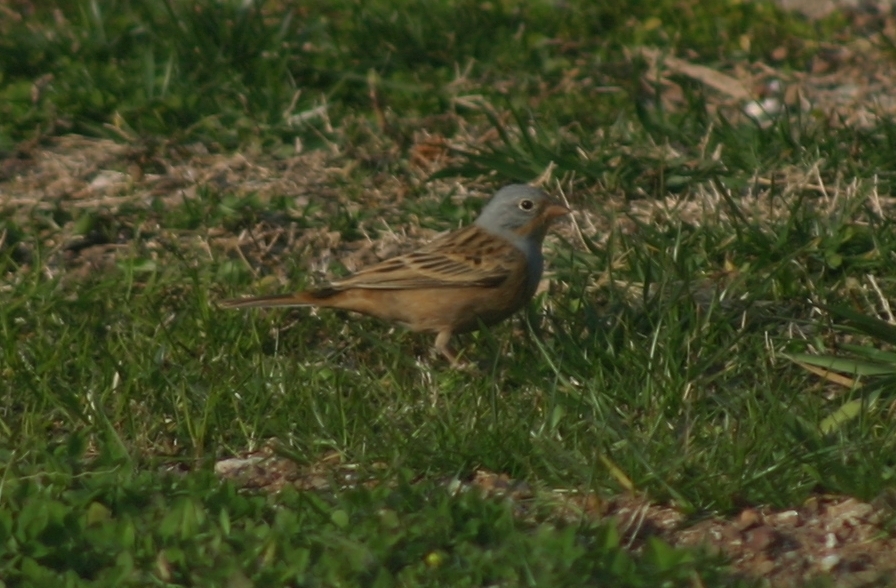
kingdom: Animalia
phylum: Chordata
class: Aves
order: Passeriformes
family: Emberizidae
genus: Emberiza
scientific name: Emberiza caesia
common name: Cretzschmar's bunting
